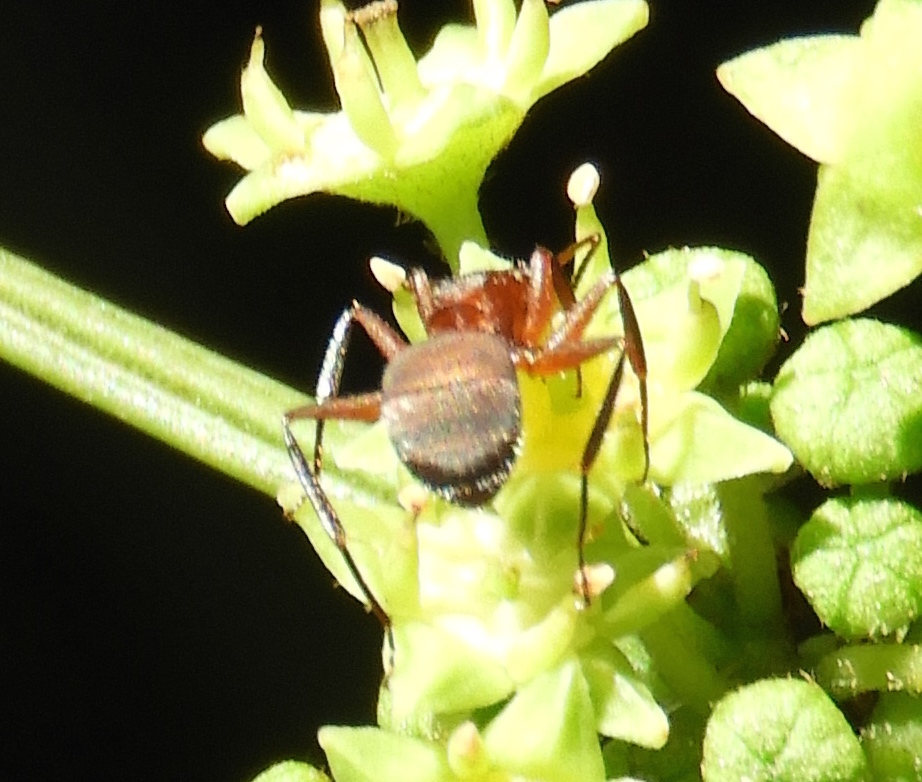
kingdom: Animalia
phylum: Arthropoda
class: Insecta
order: Hymenoptera
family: Formicidae
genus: Camponotus
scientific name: Camponotus rectangularis
